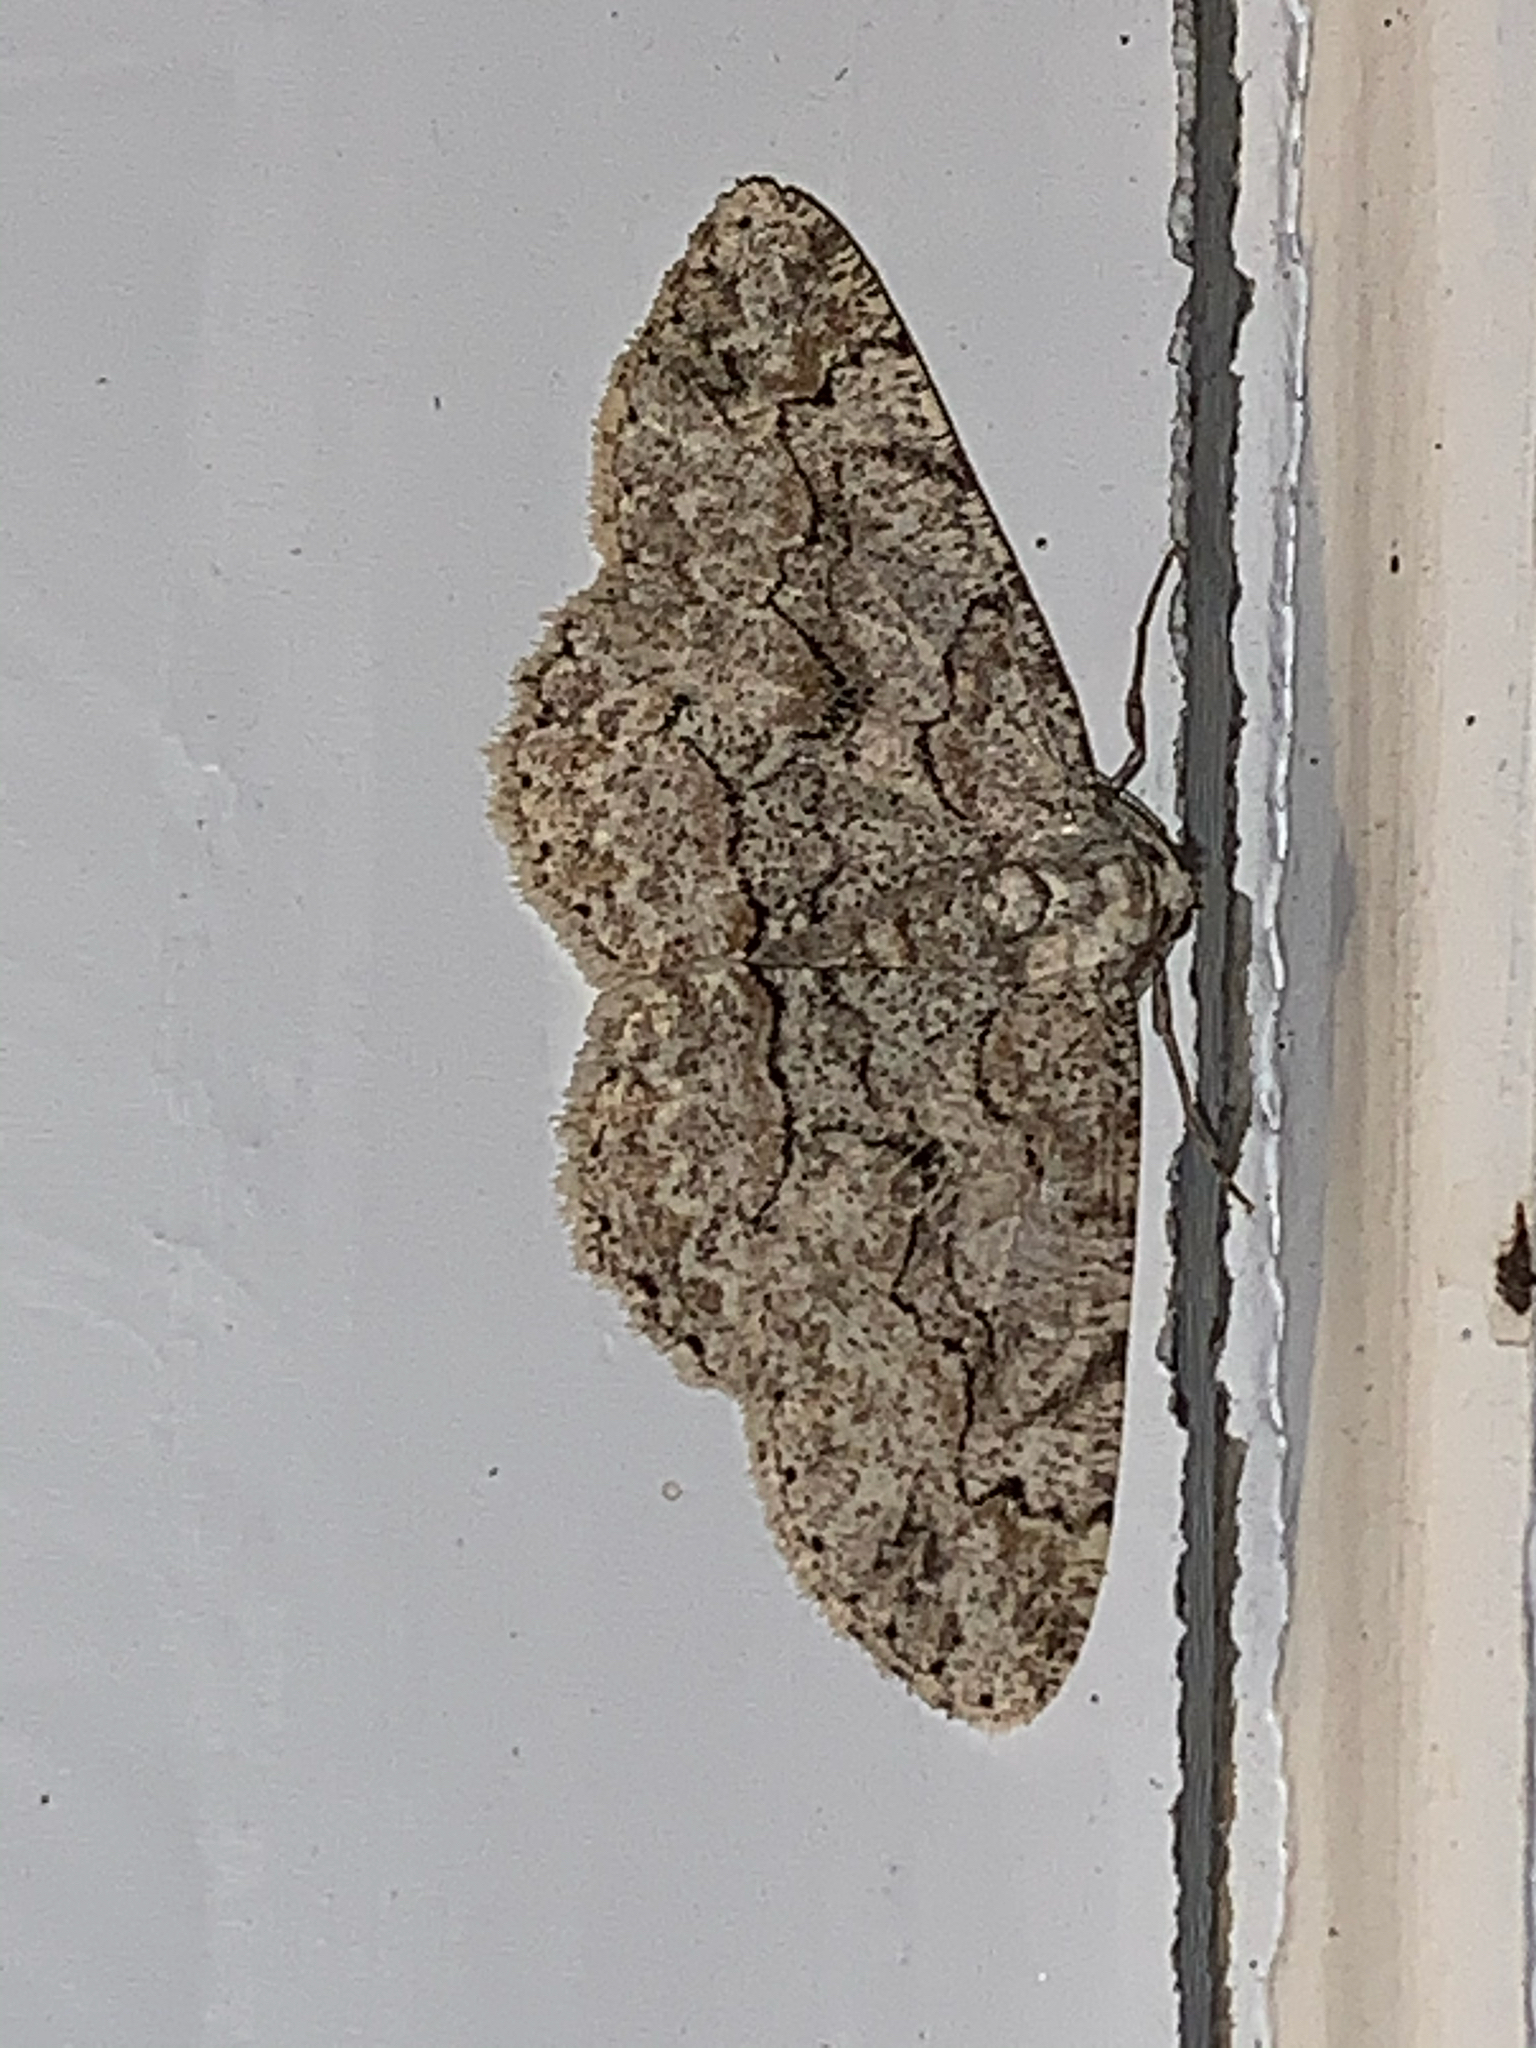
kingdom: Animalia
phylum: Arthropoda
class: Insecta
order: Lepidoptera
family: Geometridae
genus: Iridopsis
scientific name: Iridopsis defectaria
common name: Brown-shaded gray
